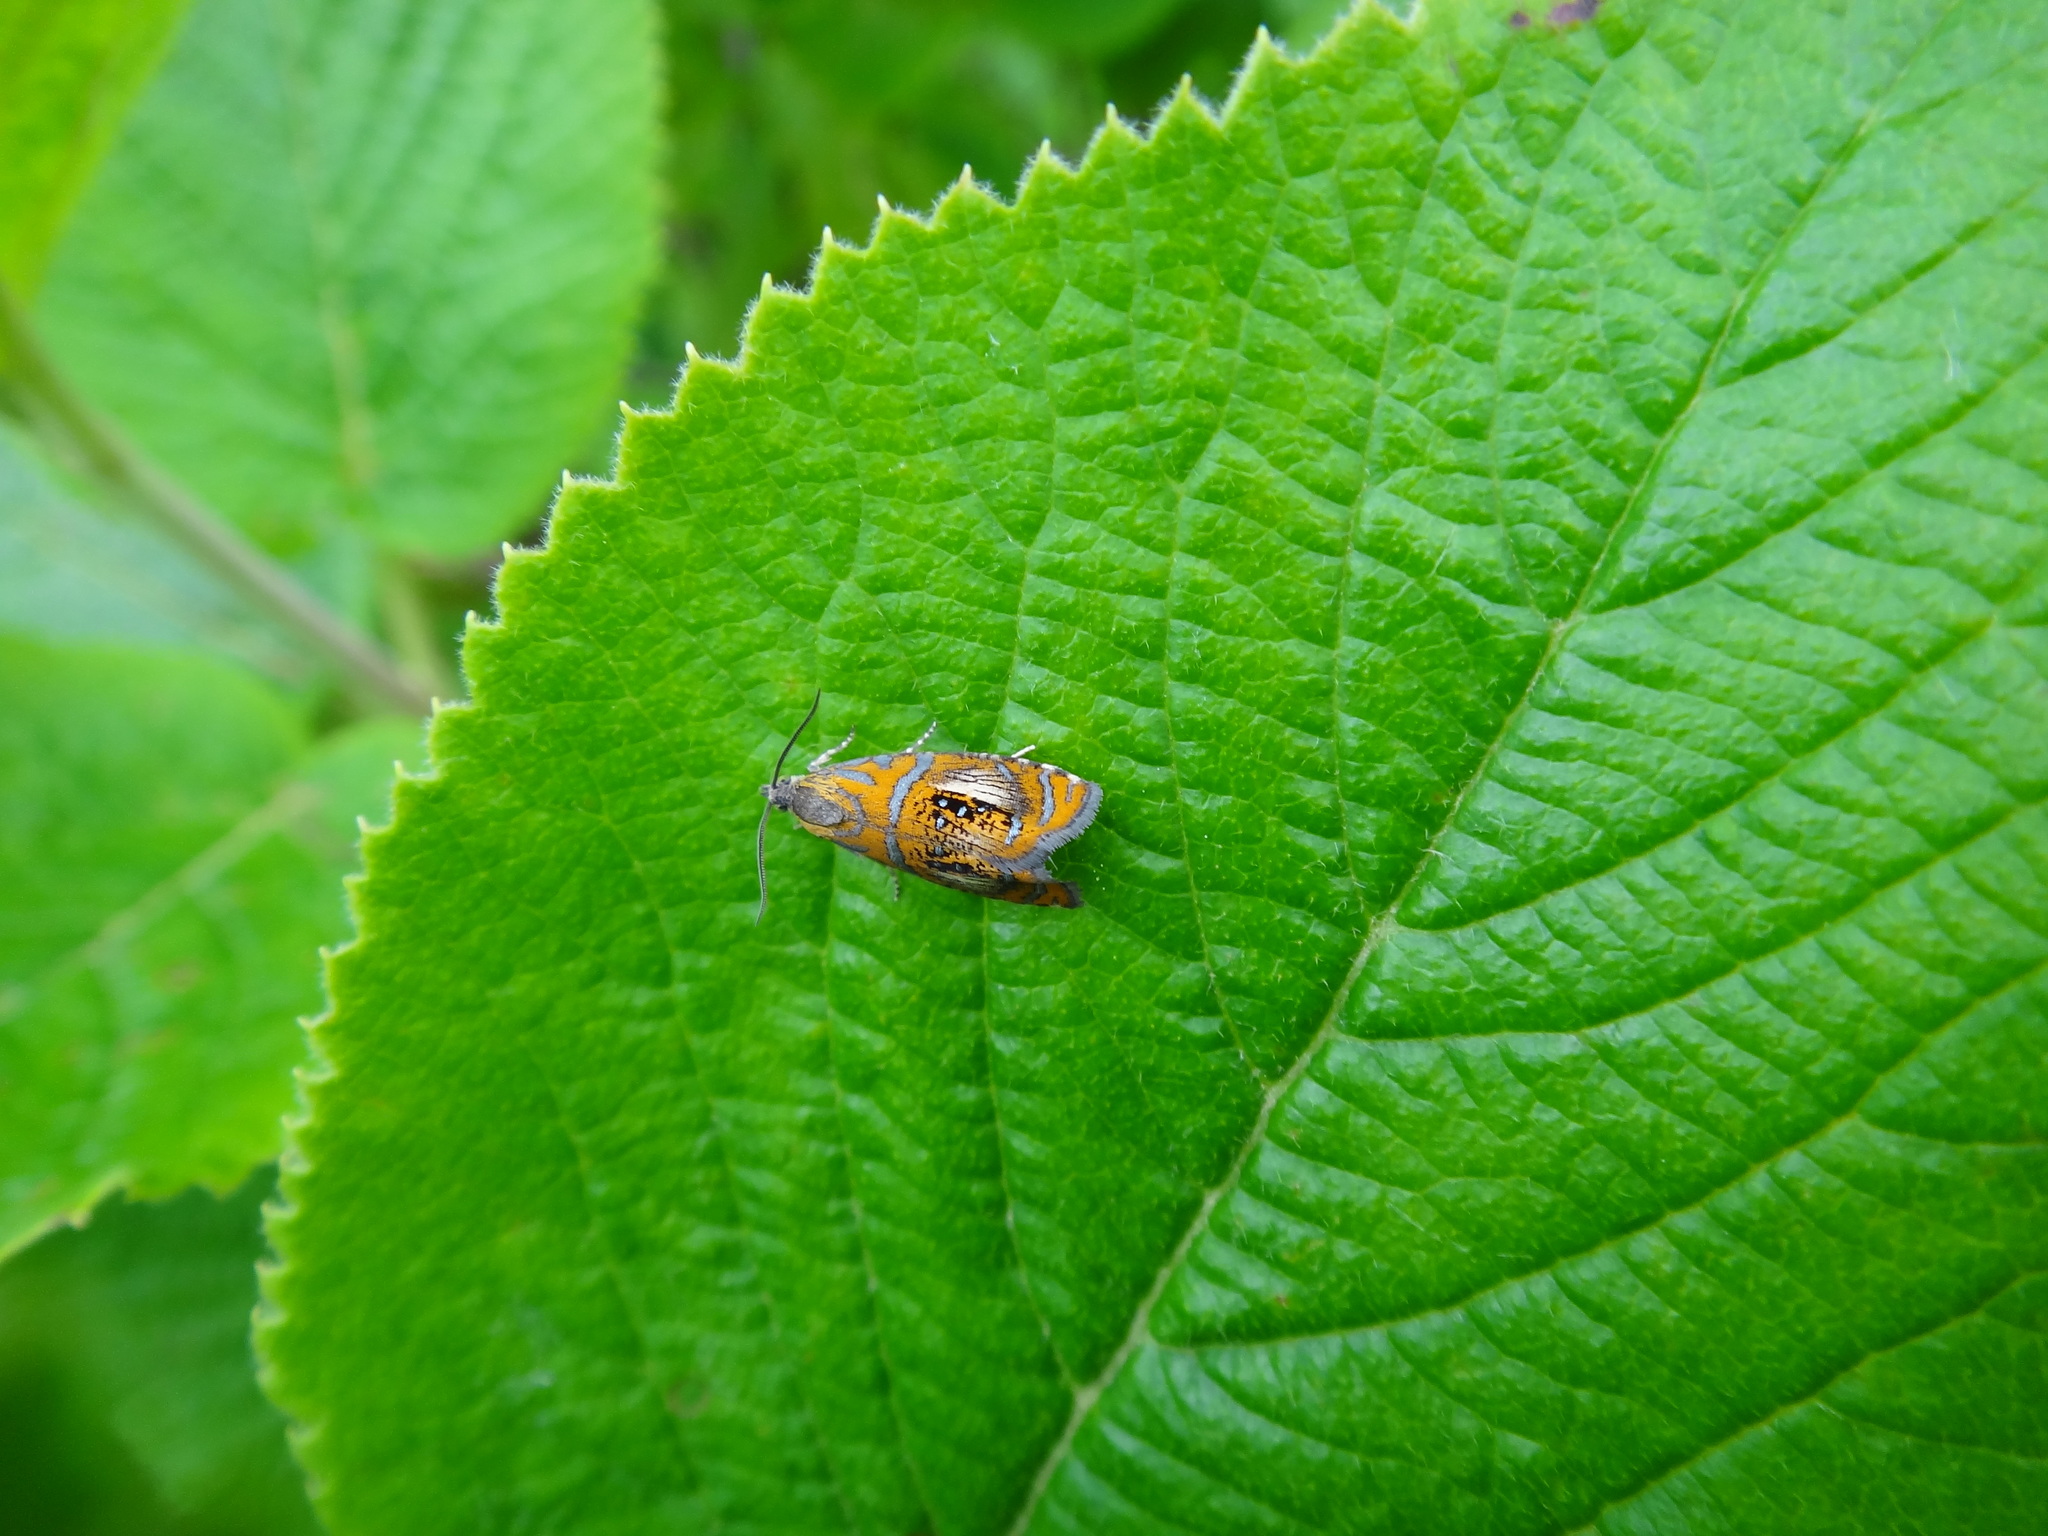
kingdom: Animalia
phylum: Arthropoda
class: Insecta
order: Lepidoptera
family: Tortricidae
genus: Olethreutes
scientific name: Olethreutes arcuella
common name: Arched marble
